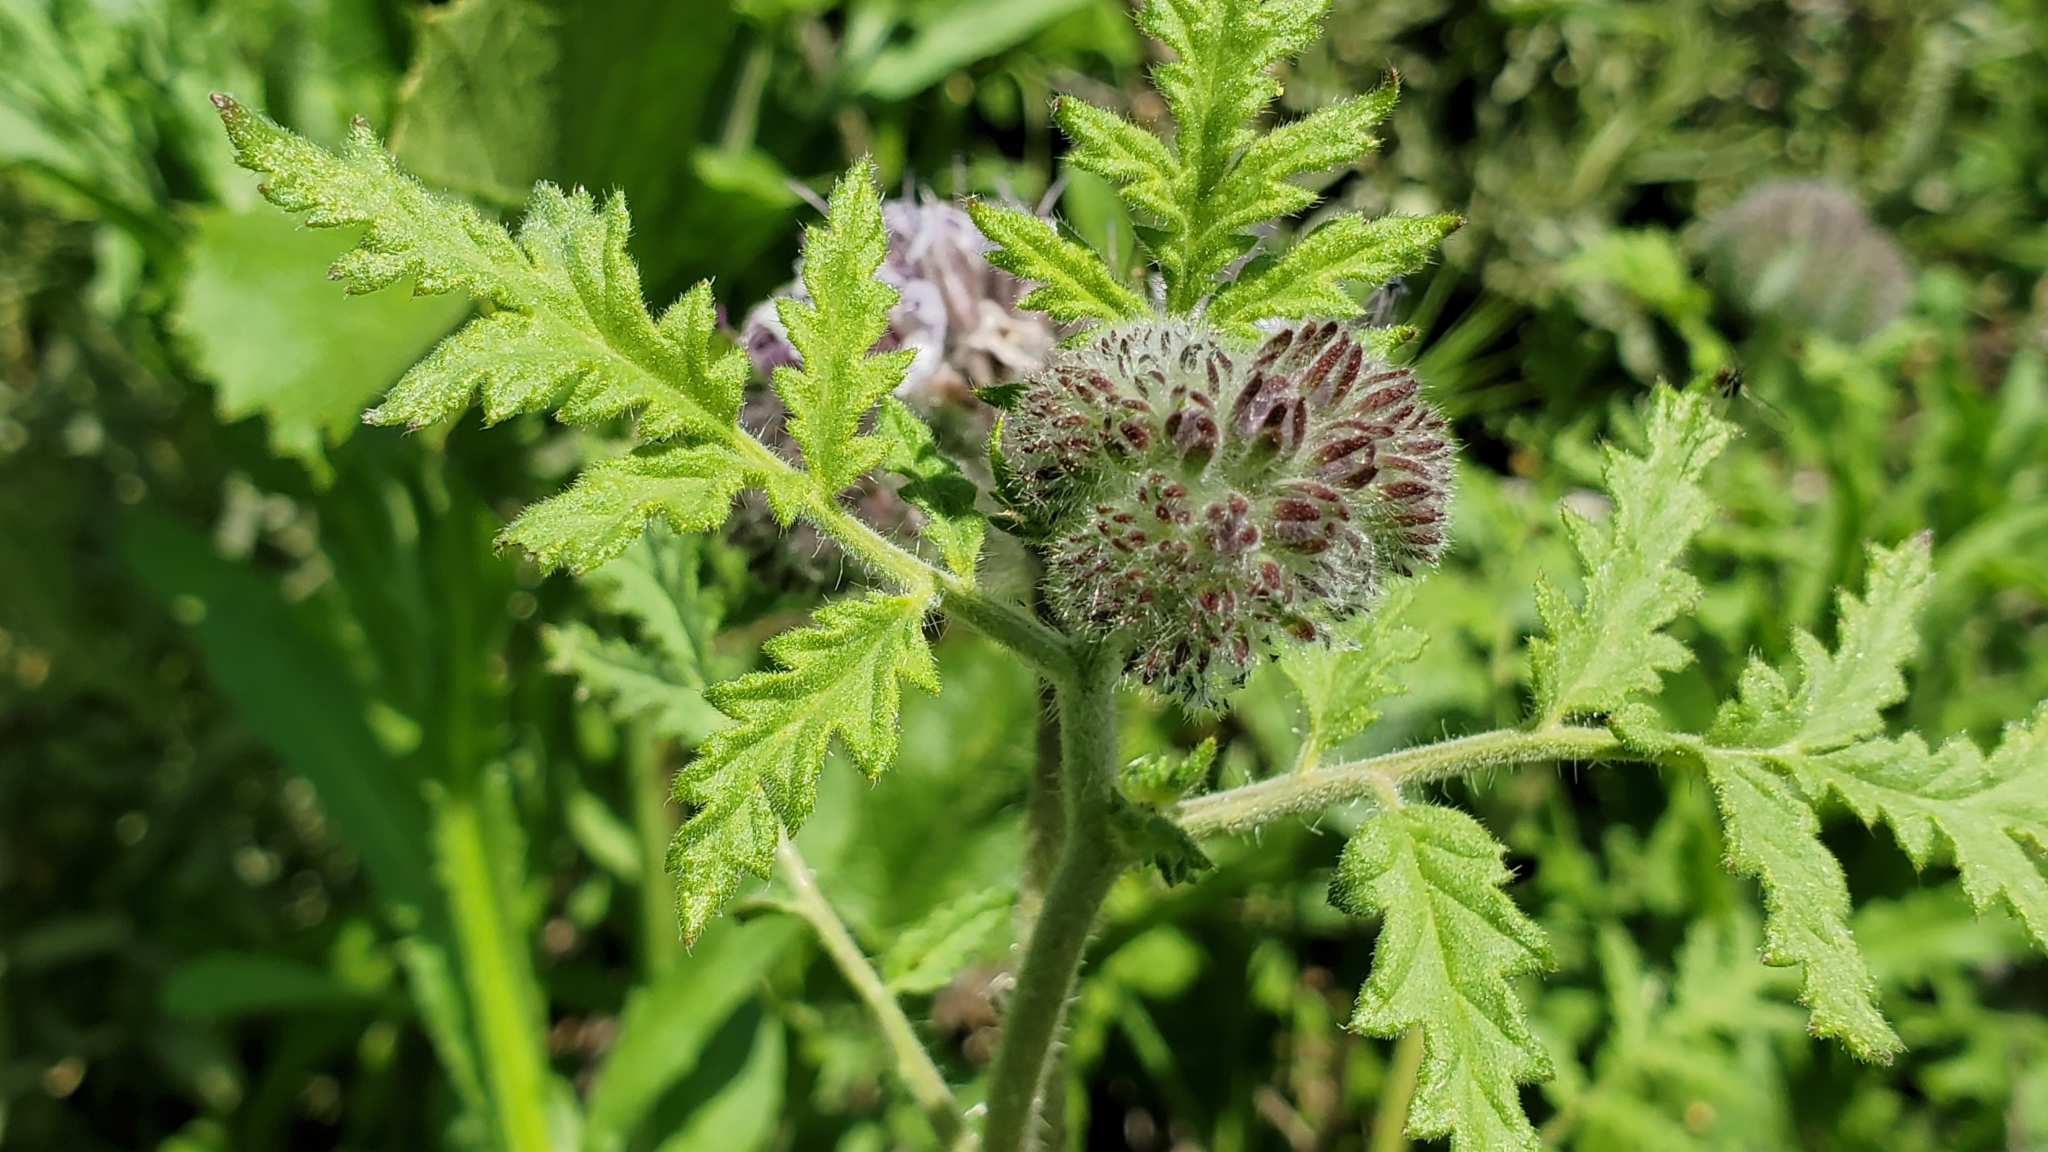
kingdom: Plantae
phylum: Tracheophyta
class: Magnoliopsida
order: Boraginales
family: Hydrophyllaceae
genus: Phacelia
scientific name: Phacelia hubbyi
